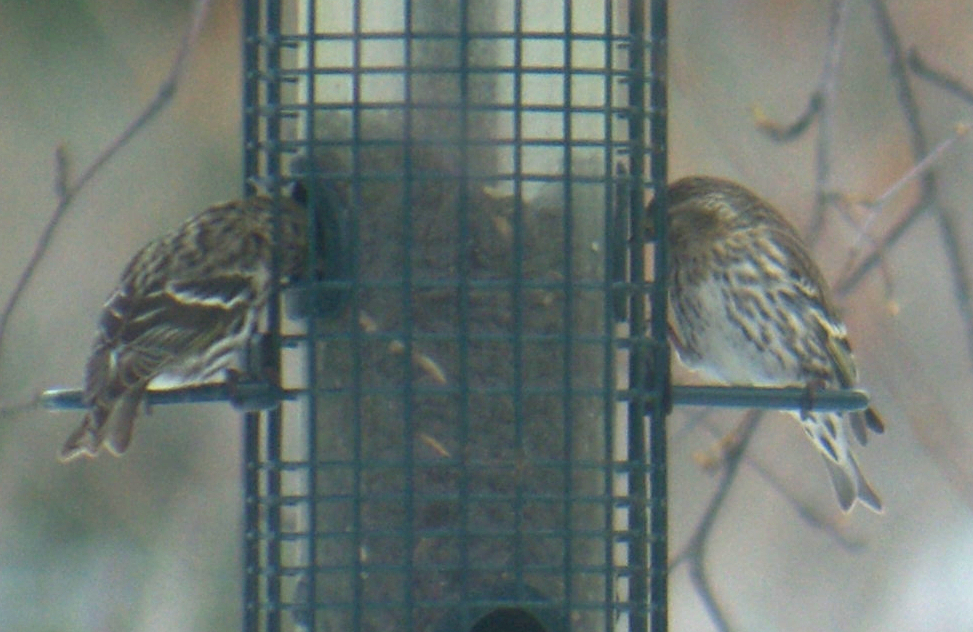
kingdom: Animalia
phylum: Chordata
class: Aves
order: Passeriformes
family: Fringillidae
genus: Spinus
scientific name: Spinus pinus
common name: Pine siskin
